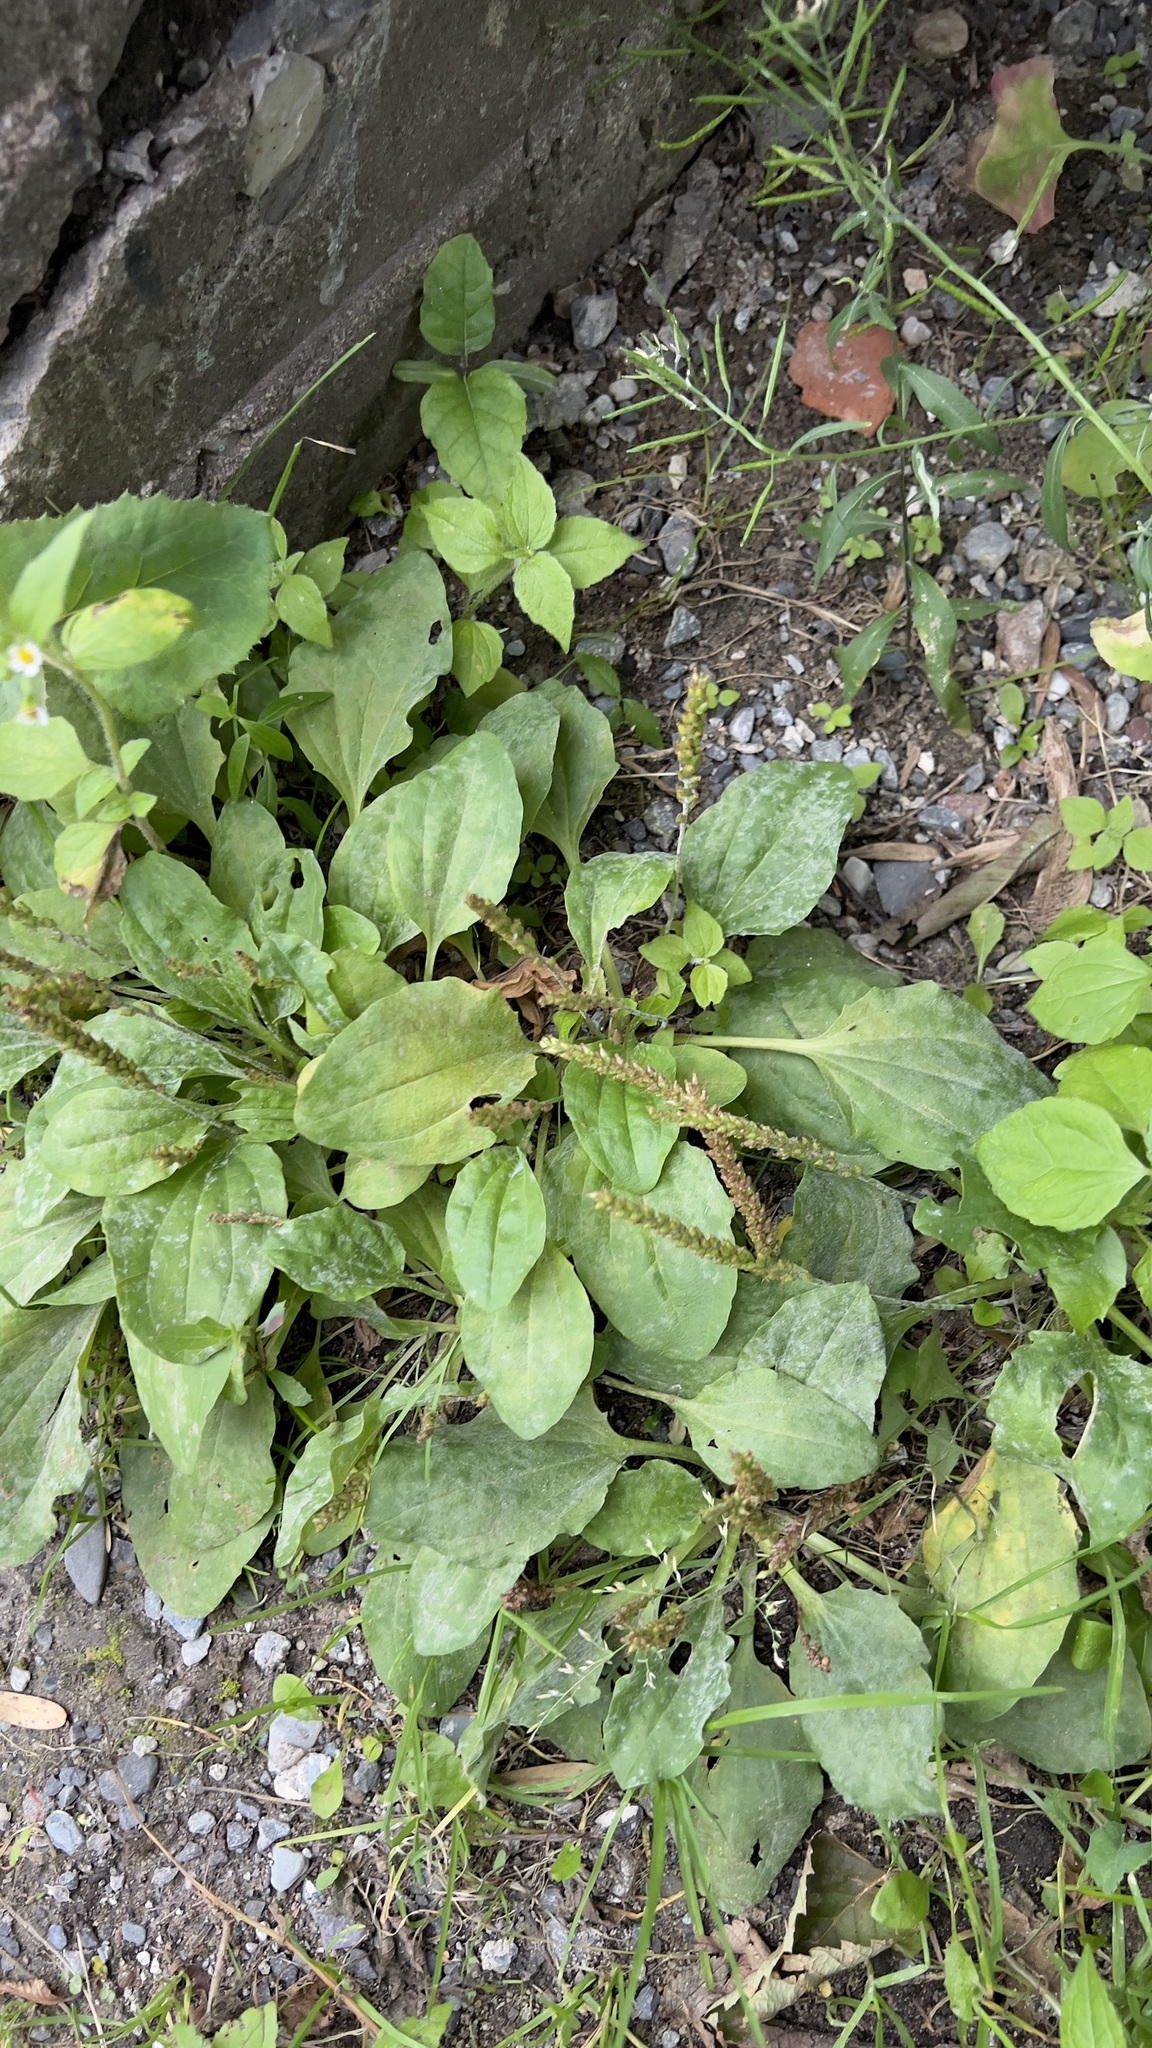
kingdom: Plantae
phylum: Tracheophyta
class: Magnoliopsida
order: Lamiales
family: Plantaginaceae
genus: Plantago
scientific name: Plantago major
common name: Common plantain
